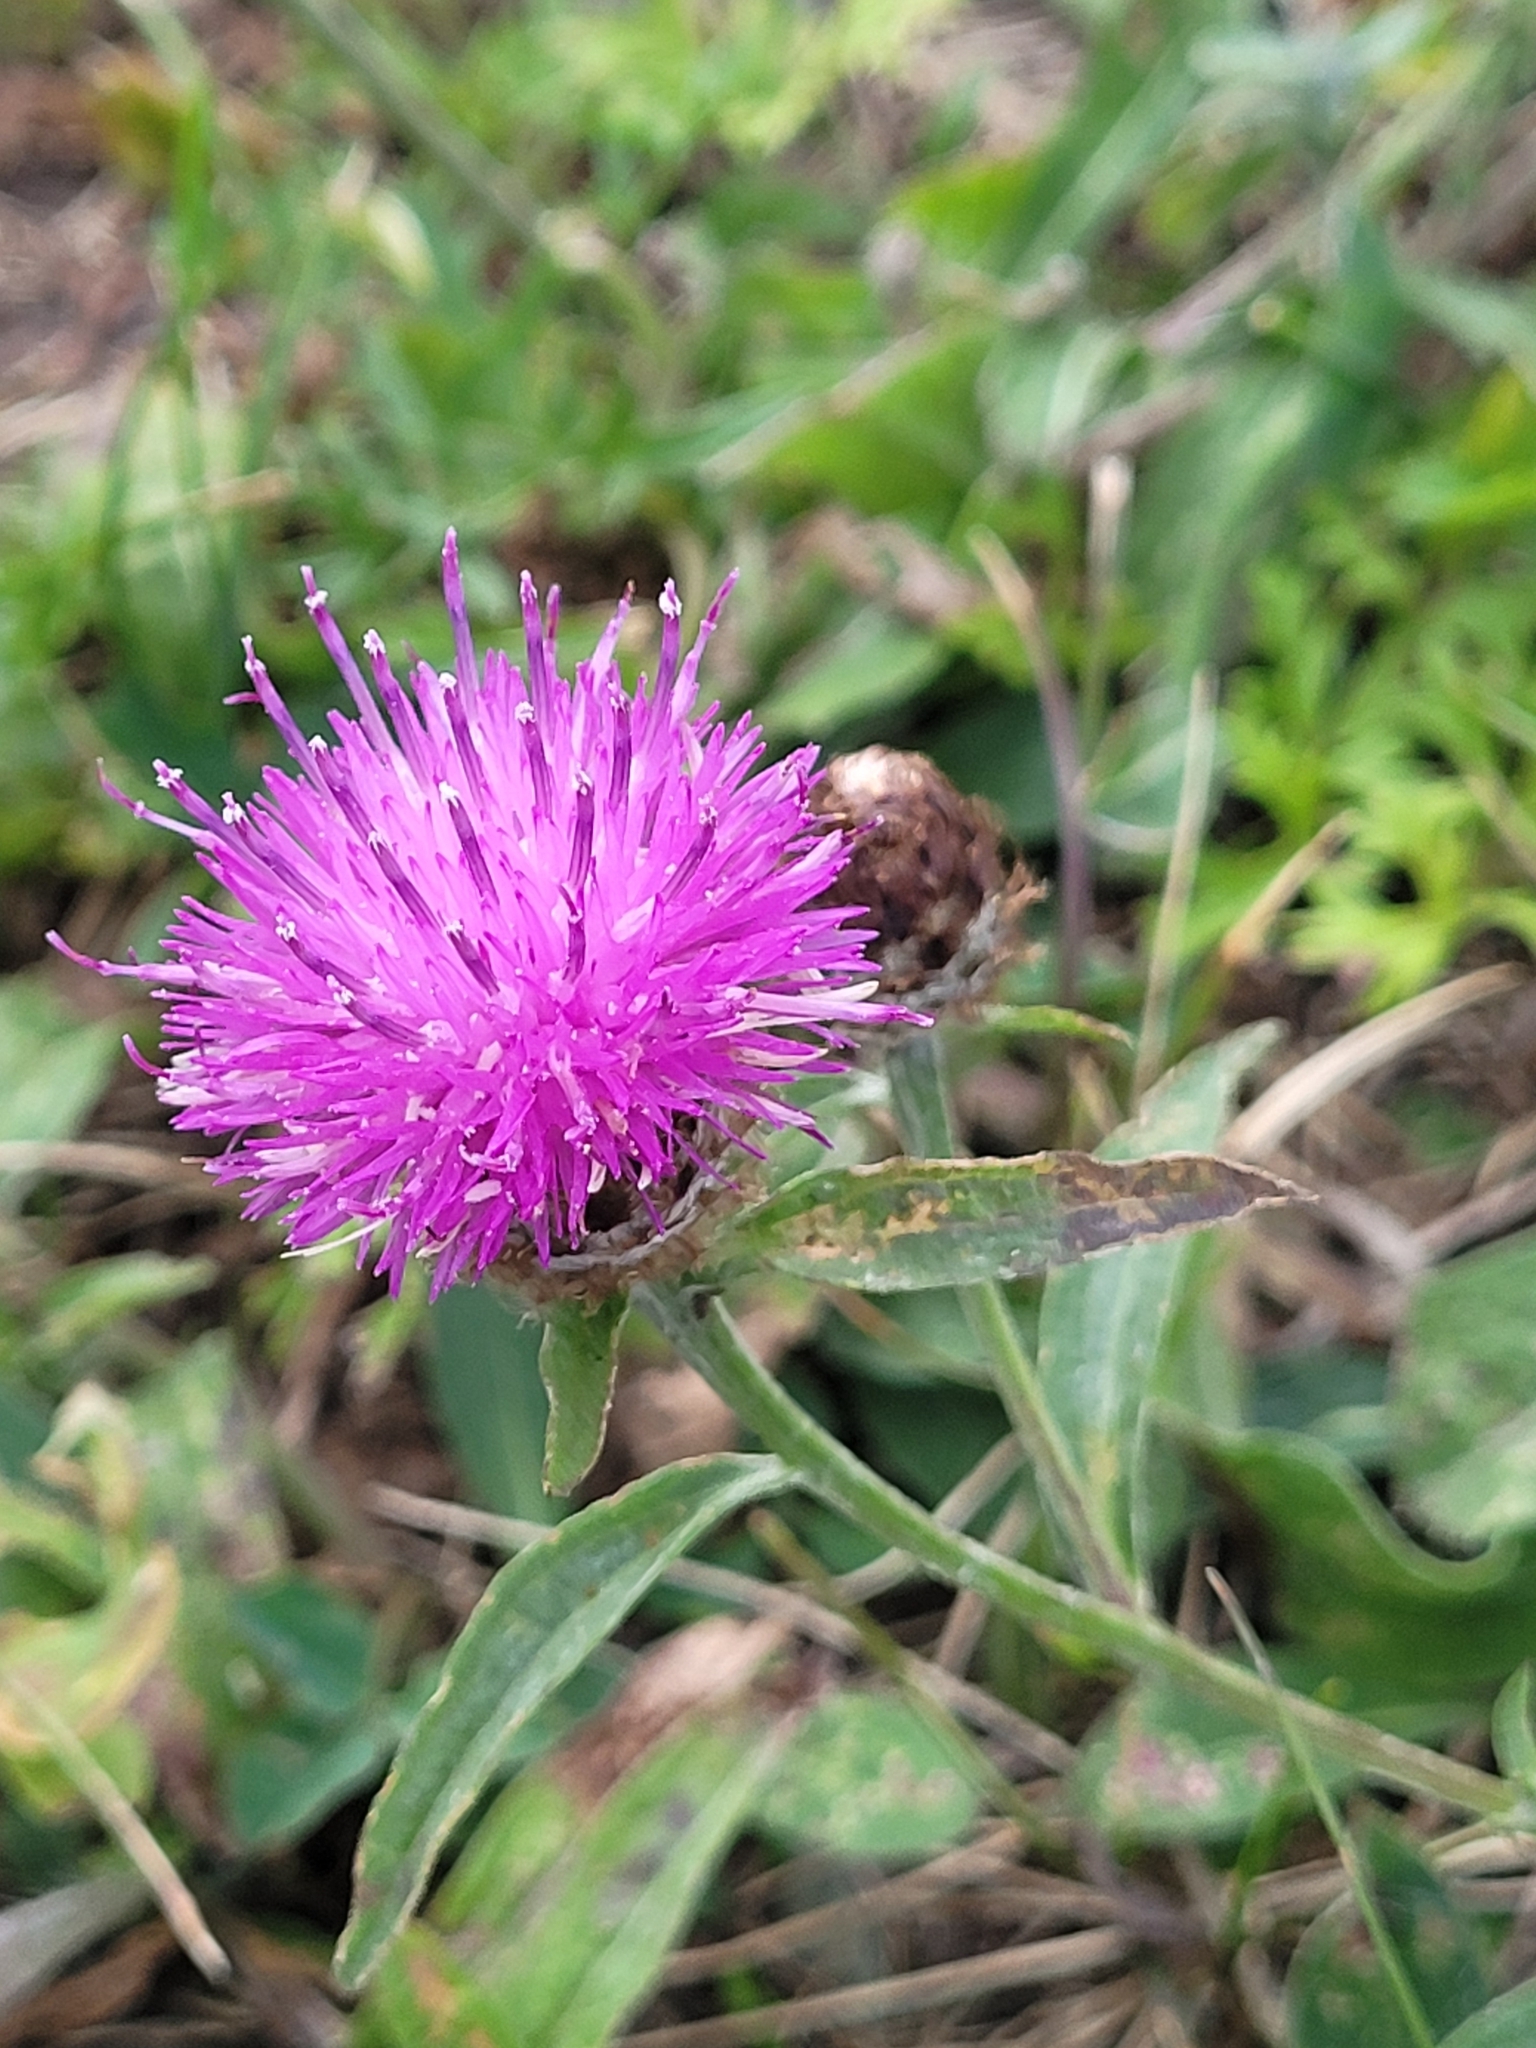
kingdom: Plantae
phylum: Tracheophyta
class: Magnoliopsida
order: Asterales
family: Asteraceae
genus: Centaurea
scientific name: Centaurea nigra
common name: Lesser knapweed
